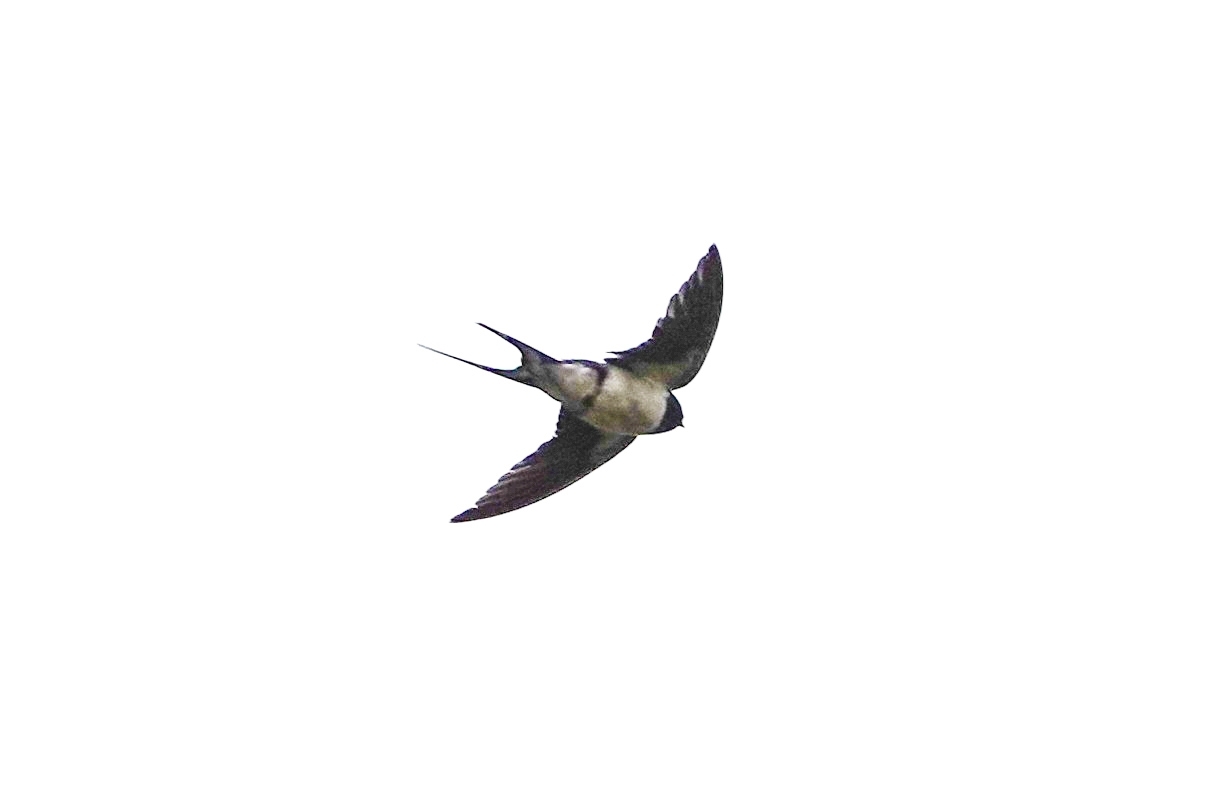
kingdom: Animalia
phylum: Chordata
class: Aves
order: Passeriformes
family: Hirundinidae
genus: Hirundo
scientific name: Hirundo rustica
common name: Barn swallow
